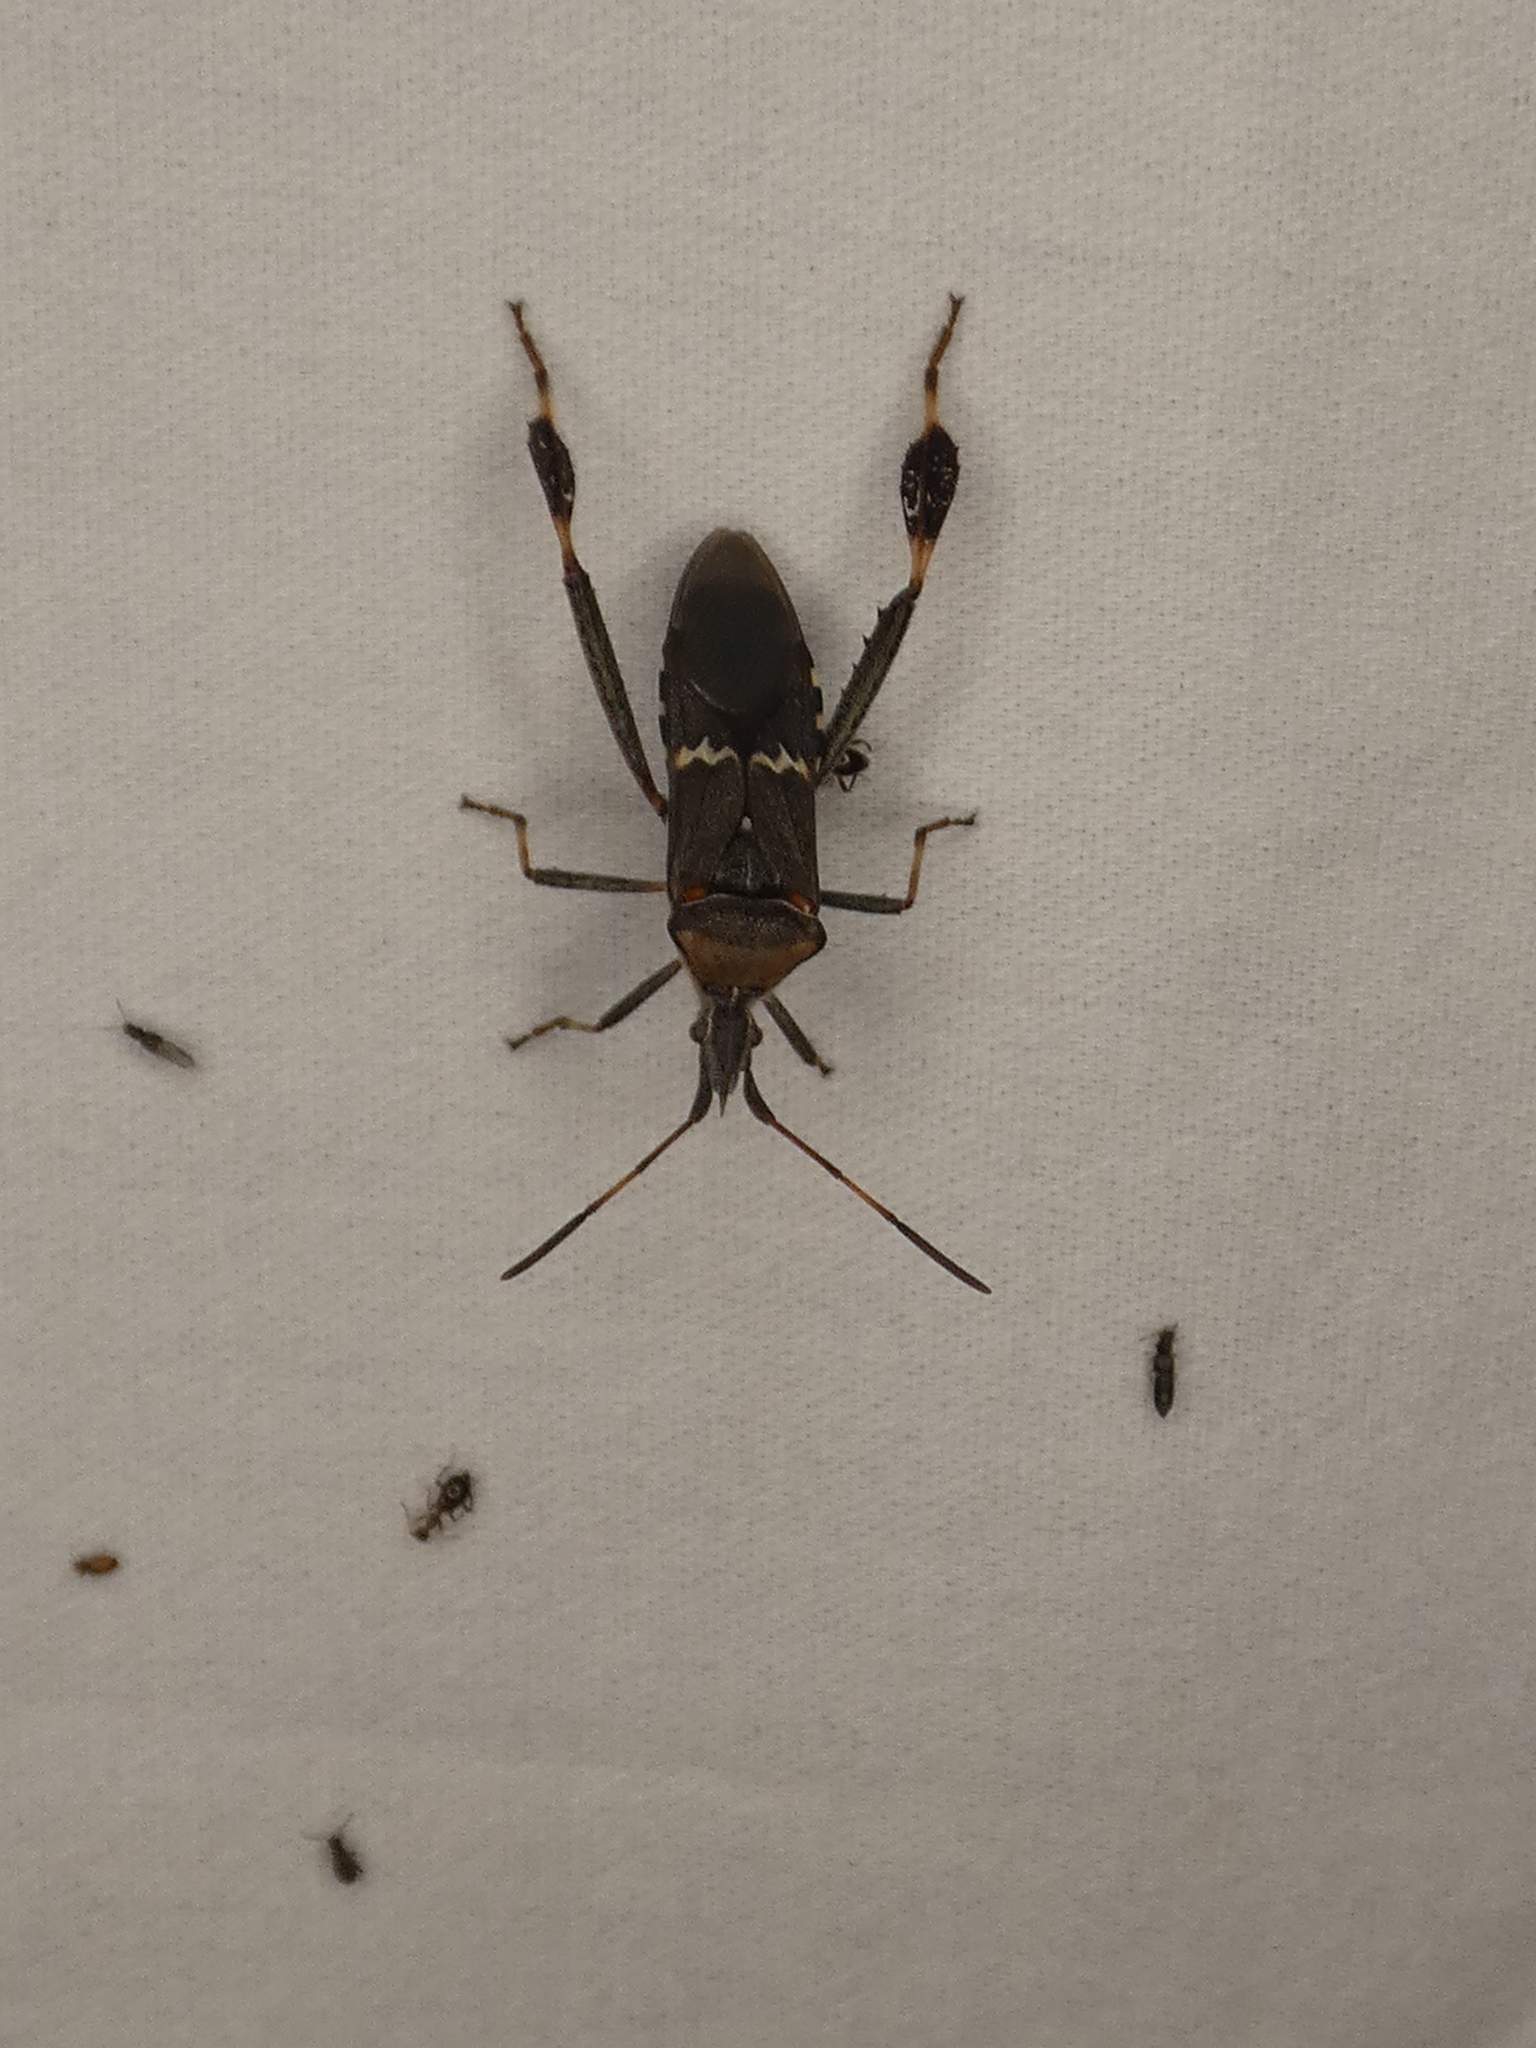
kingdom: Animalia
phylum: Arthropoda
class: Insecta
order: Hemiptera
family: Coreidae
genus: Leptoglossus
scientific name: Leptoglossus clypealis
